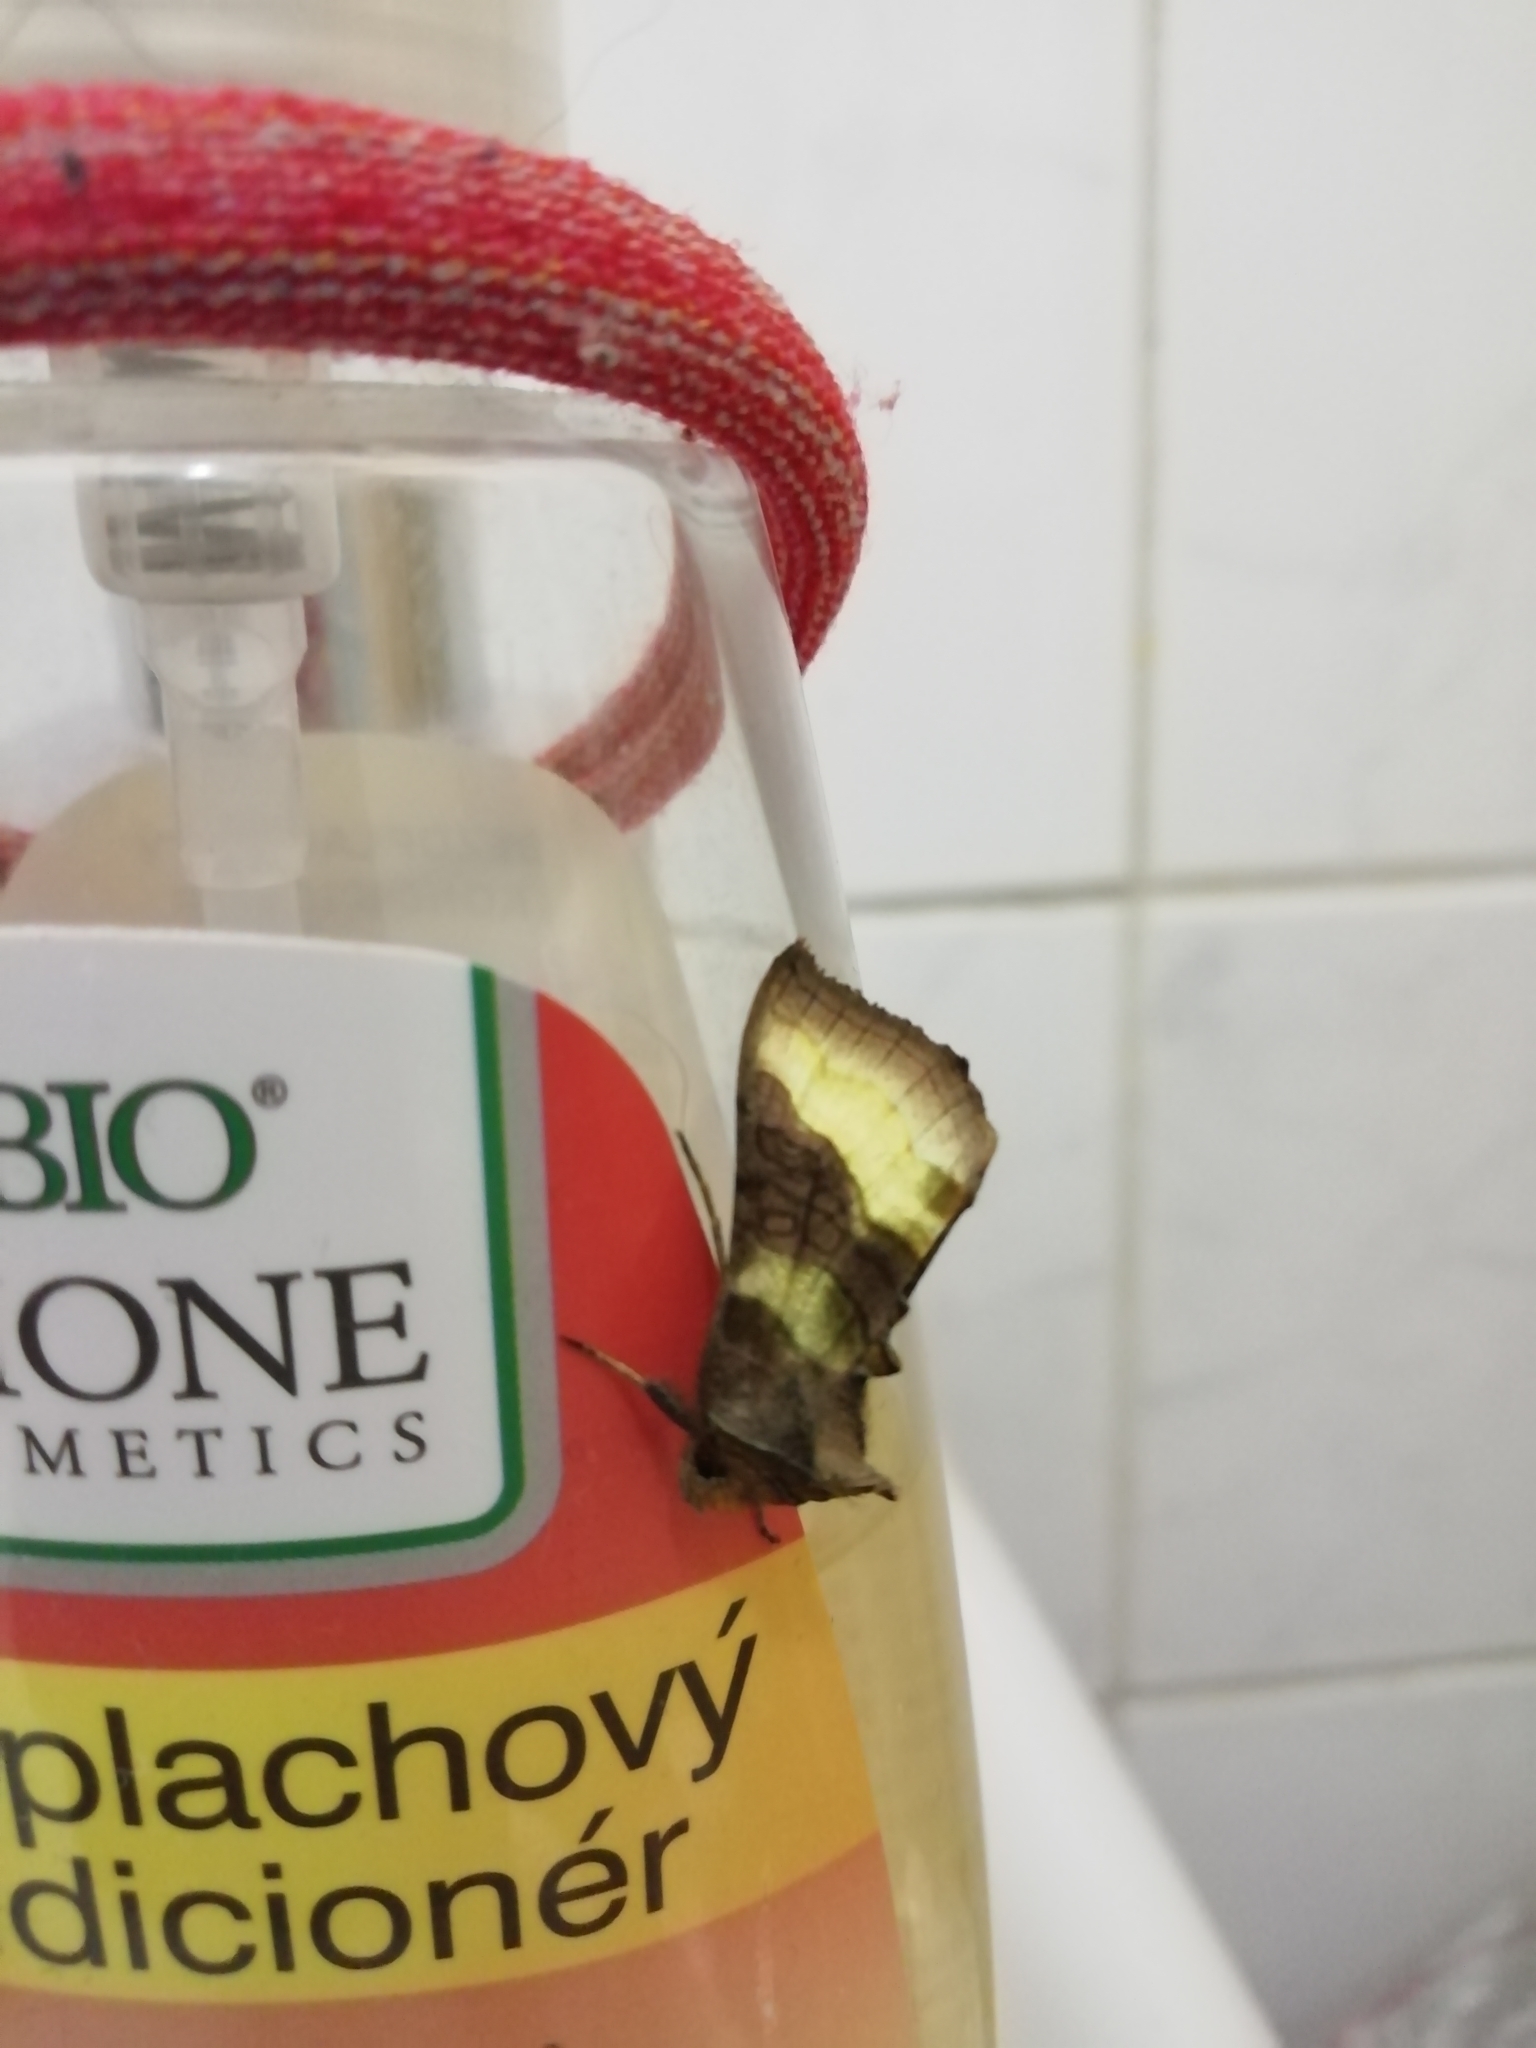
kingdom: Animalia
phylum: Arthropoda
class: Insecta
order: Lepidoptera
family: Noctuidae
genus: Diachrysia
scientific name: Diachrysia chrysitis
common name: Burnished brass
